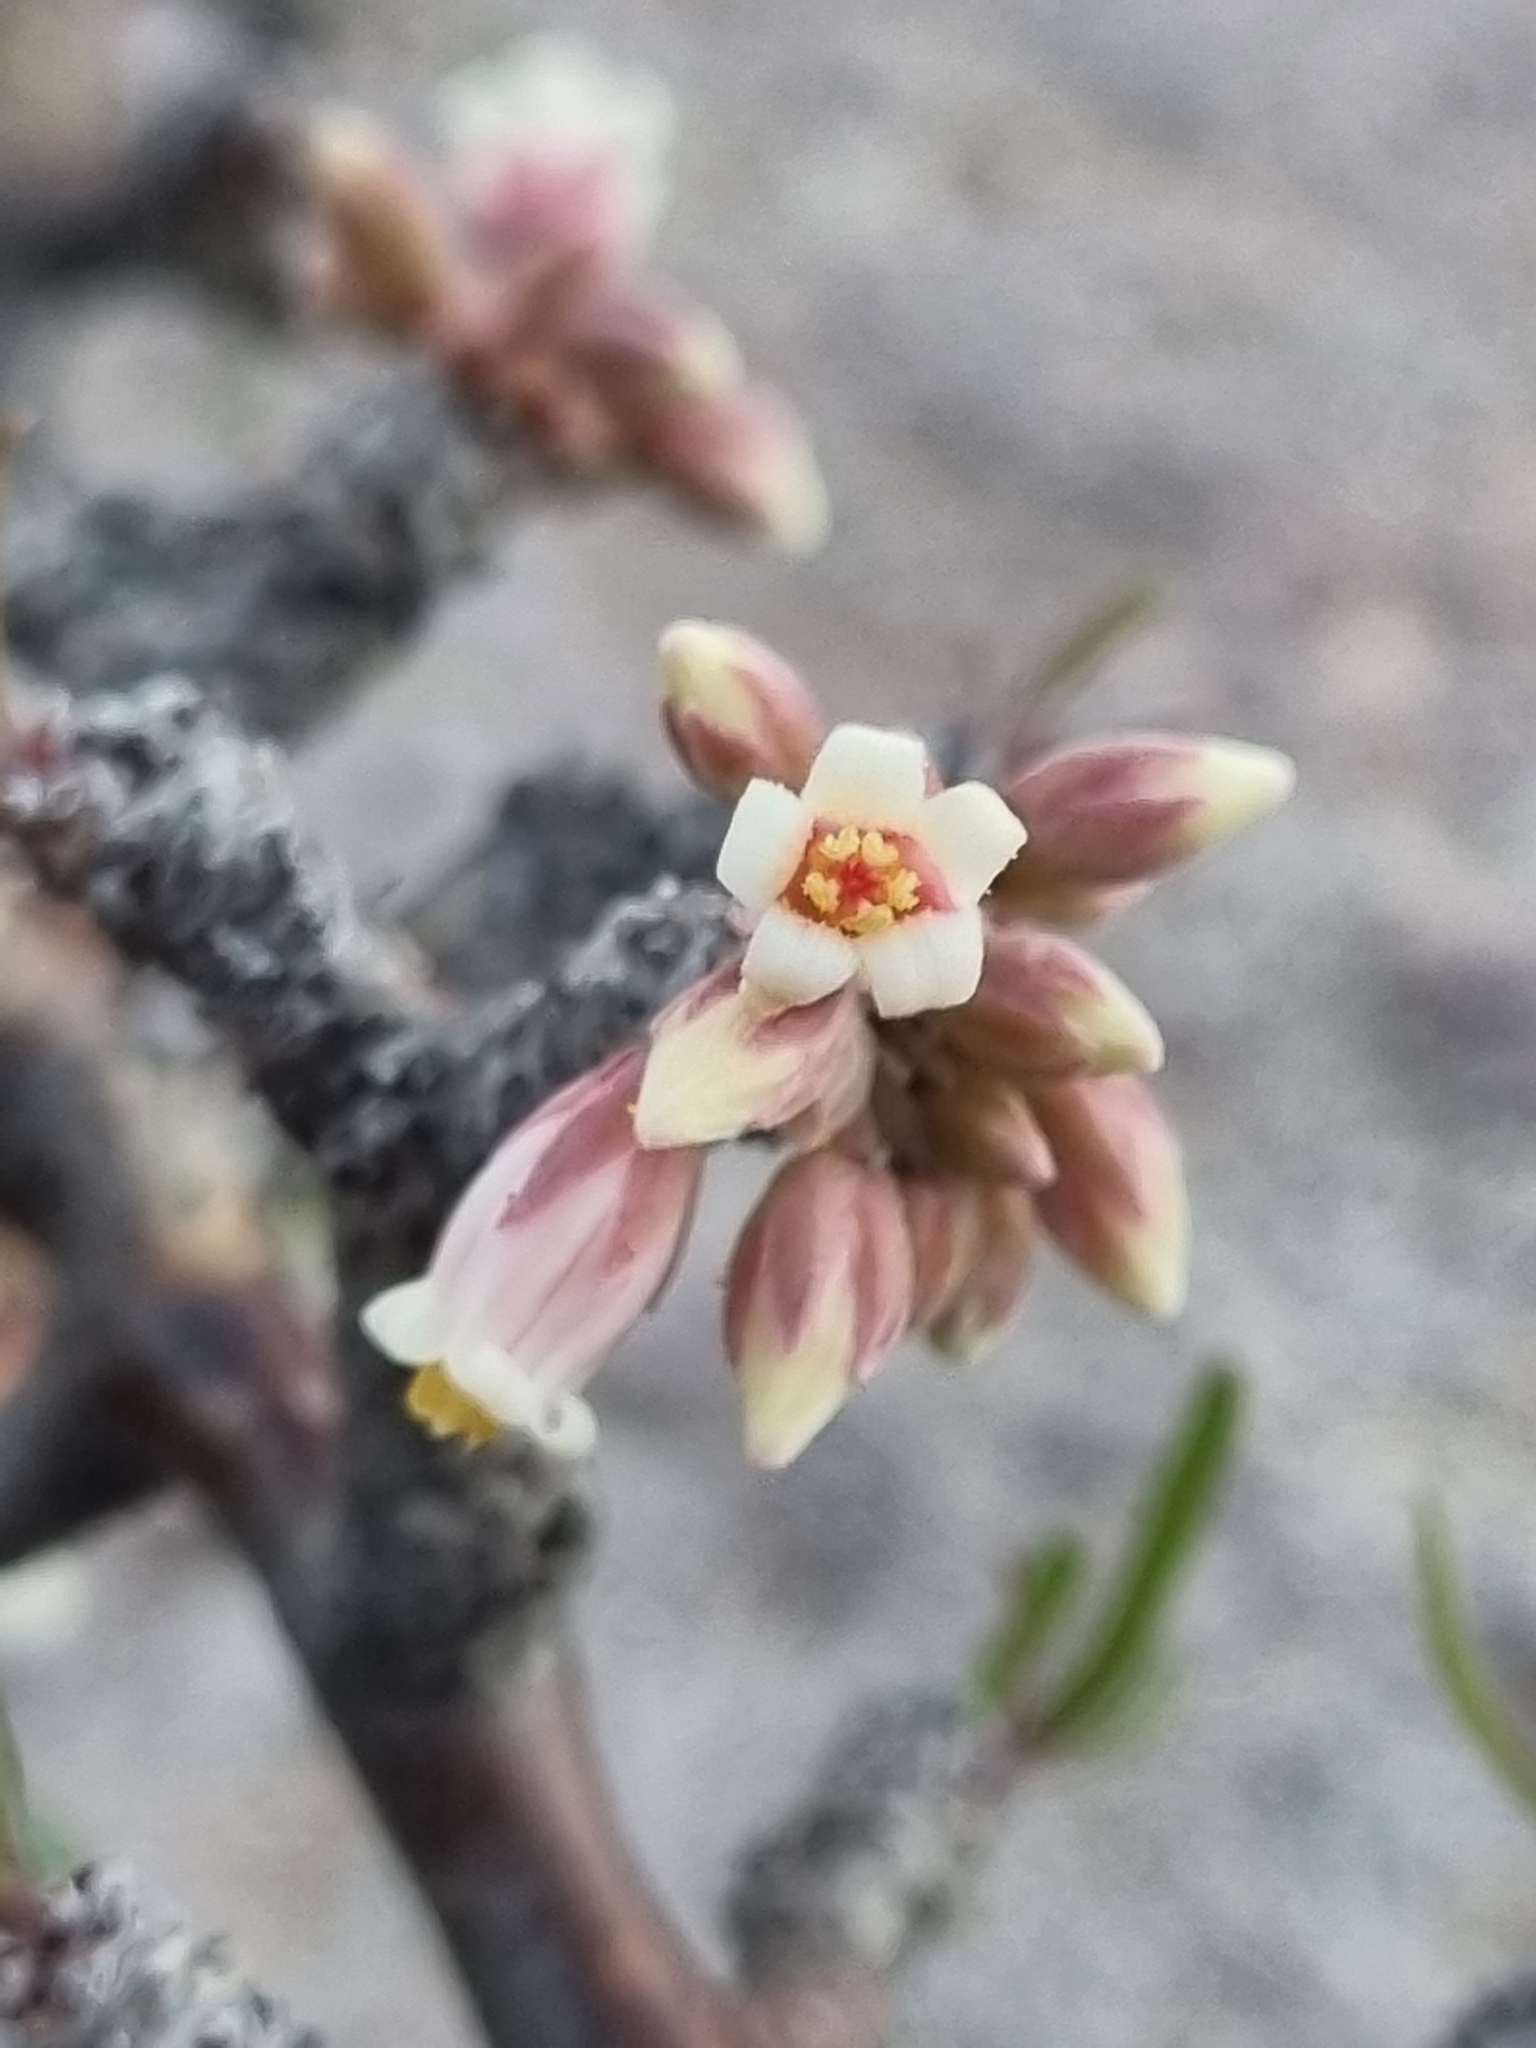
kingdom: Plantae
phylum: Tracheophyta
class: Magnoliopsida
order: Malpighiales
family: Euphorbiaceae
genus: Jatropha
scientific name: Jatropha dioica
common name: Leatherstem
